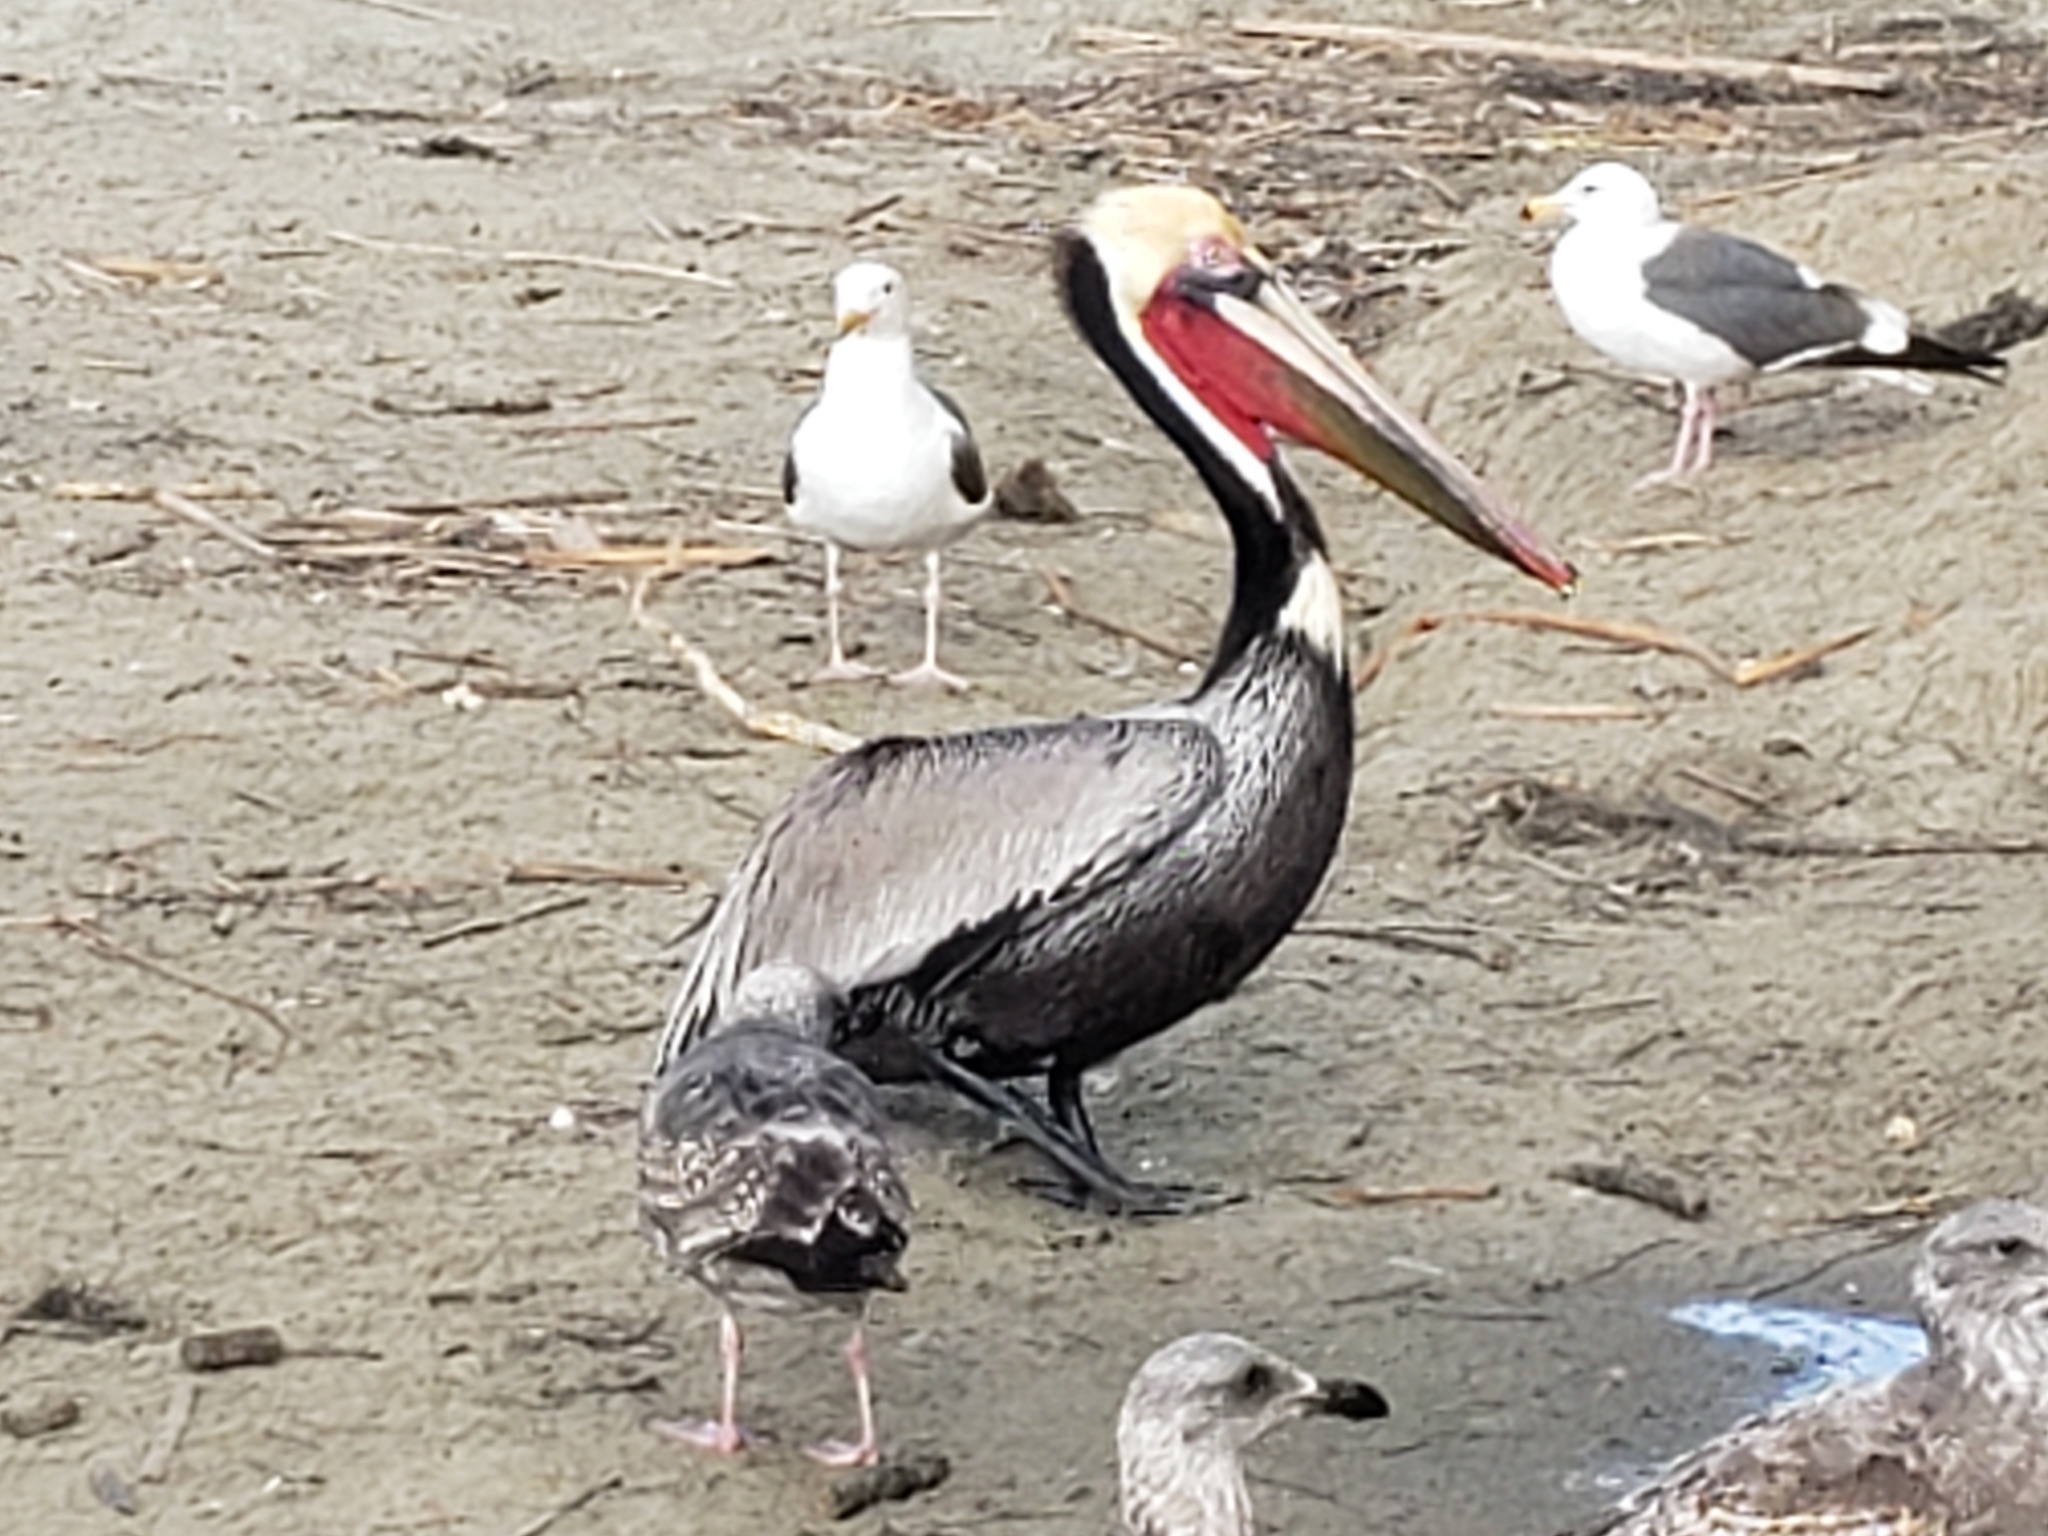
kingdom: Animalia
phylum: Chordata
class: Aves
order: Pelecaniformes
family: Pelecanidae
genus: Pelecanus
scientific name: Pelecanus occidentalis
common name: Brown pelican
